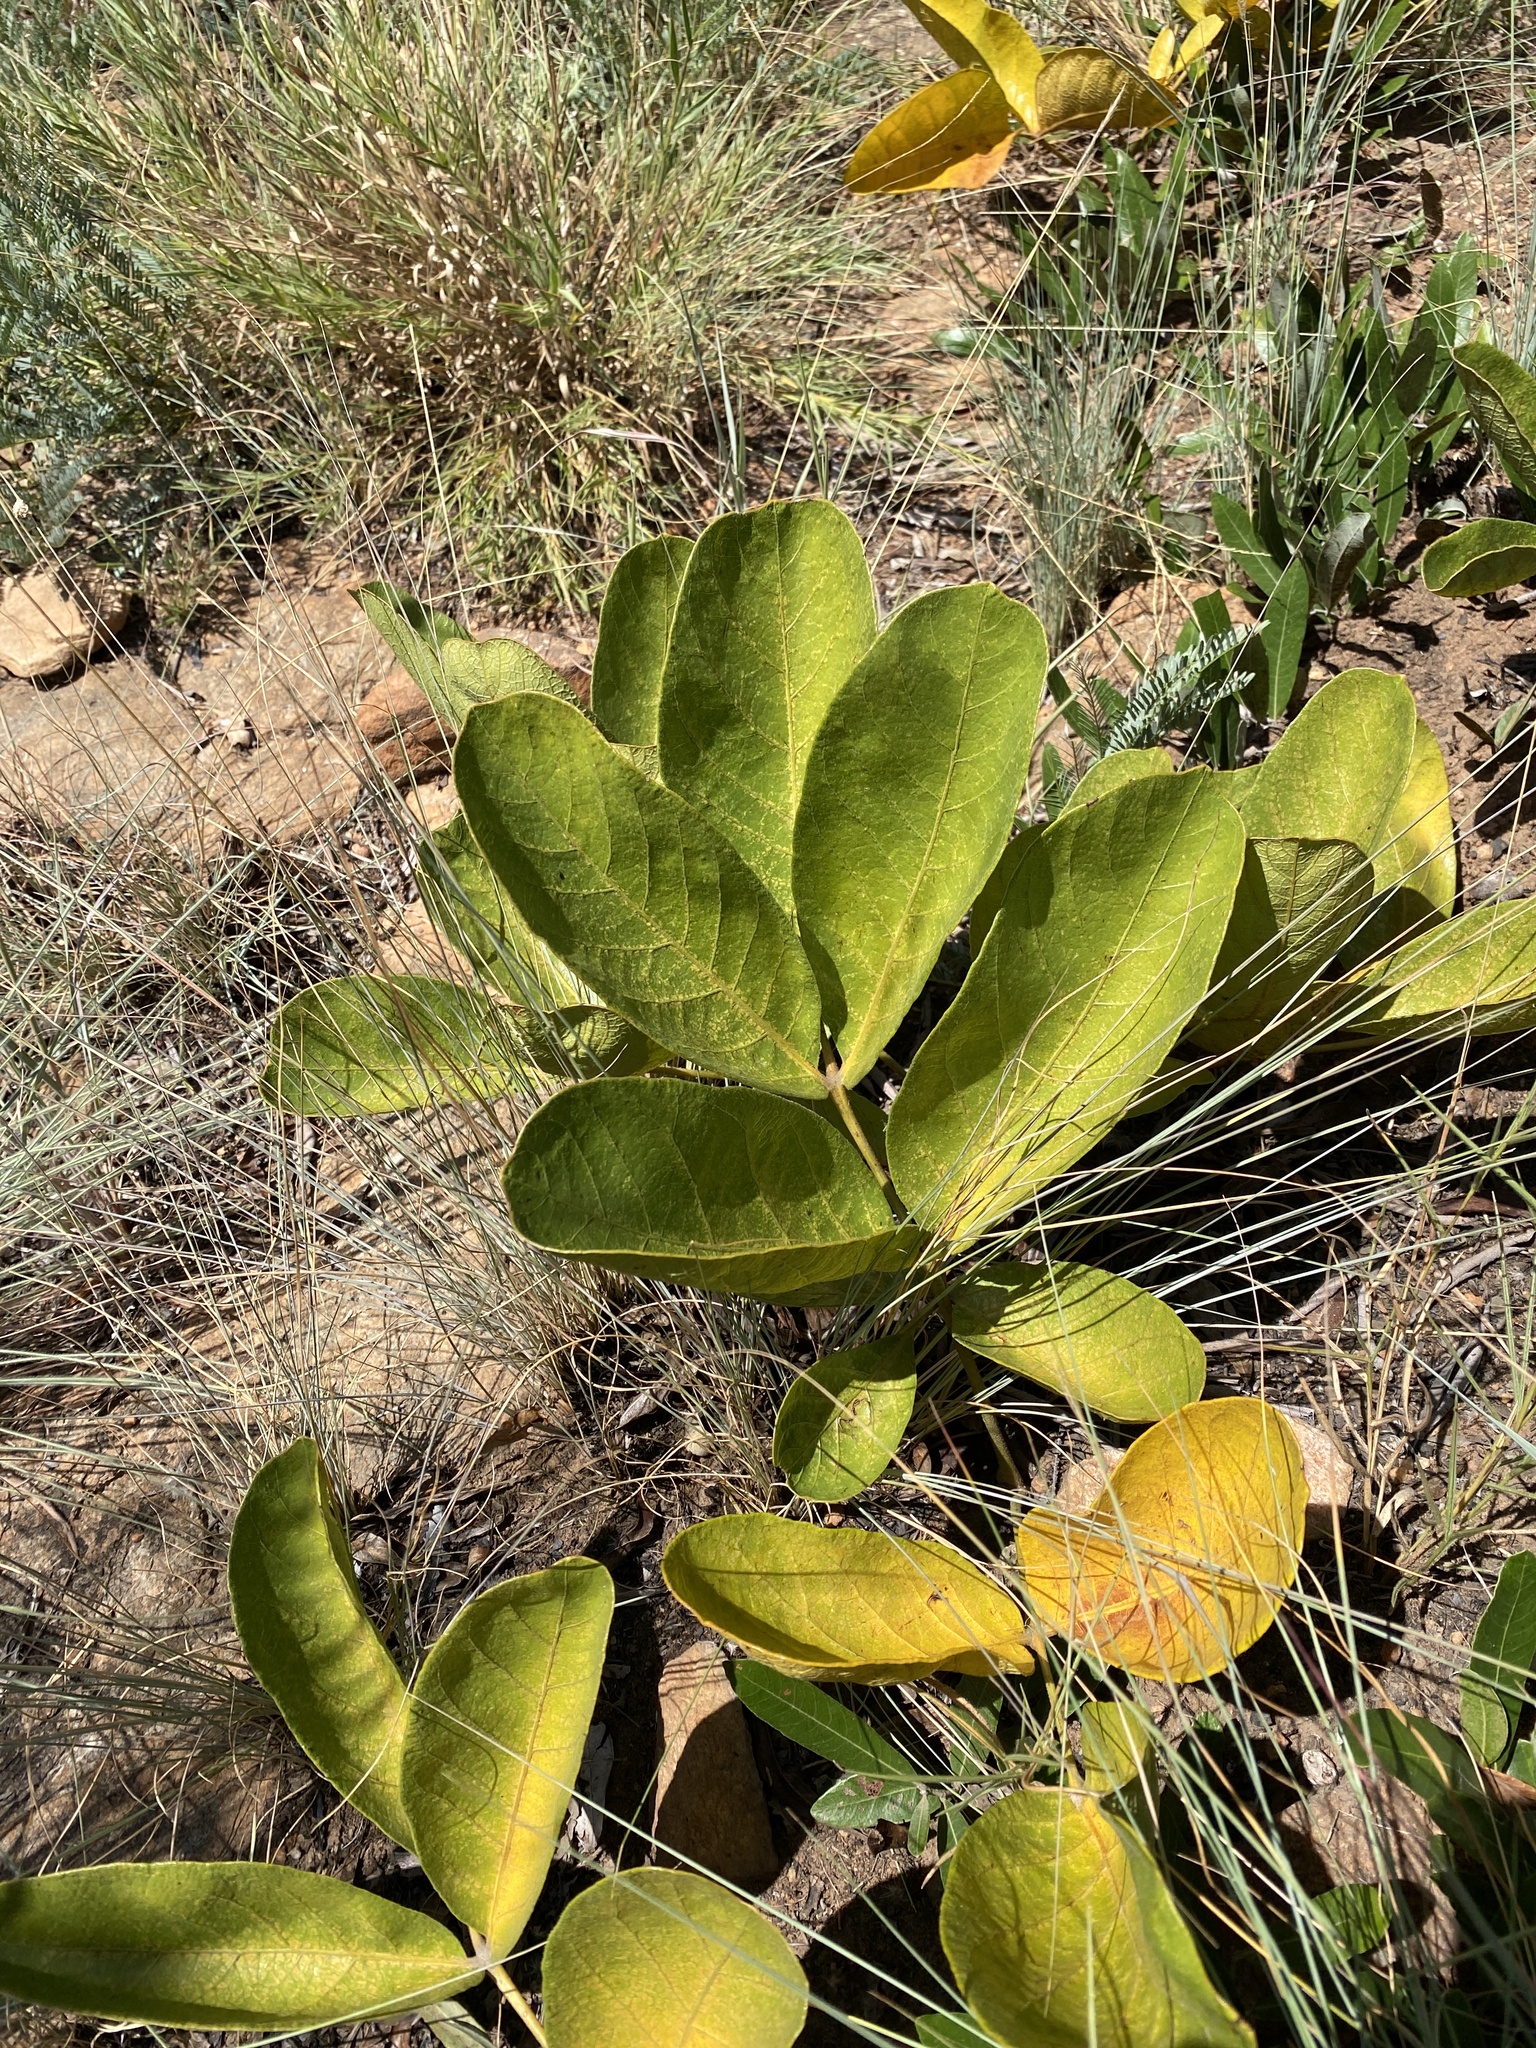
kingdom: Plantae
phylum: Tracheophyta
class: Magnoliopsida
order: Sapindales
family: Anacardiaceae
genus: Lannea
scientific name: Lannea edulis
